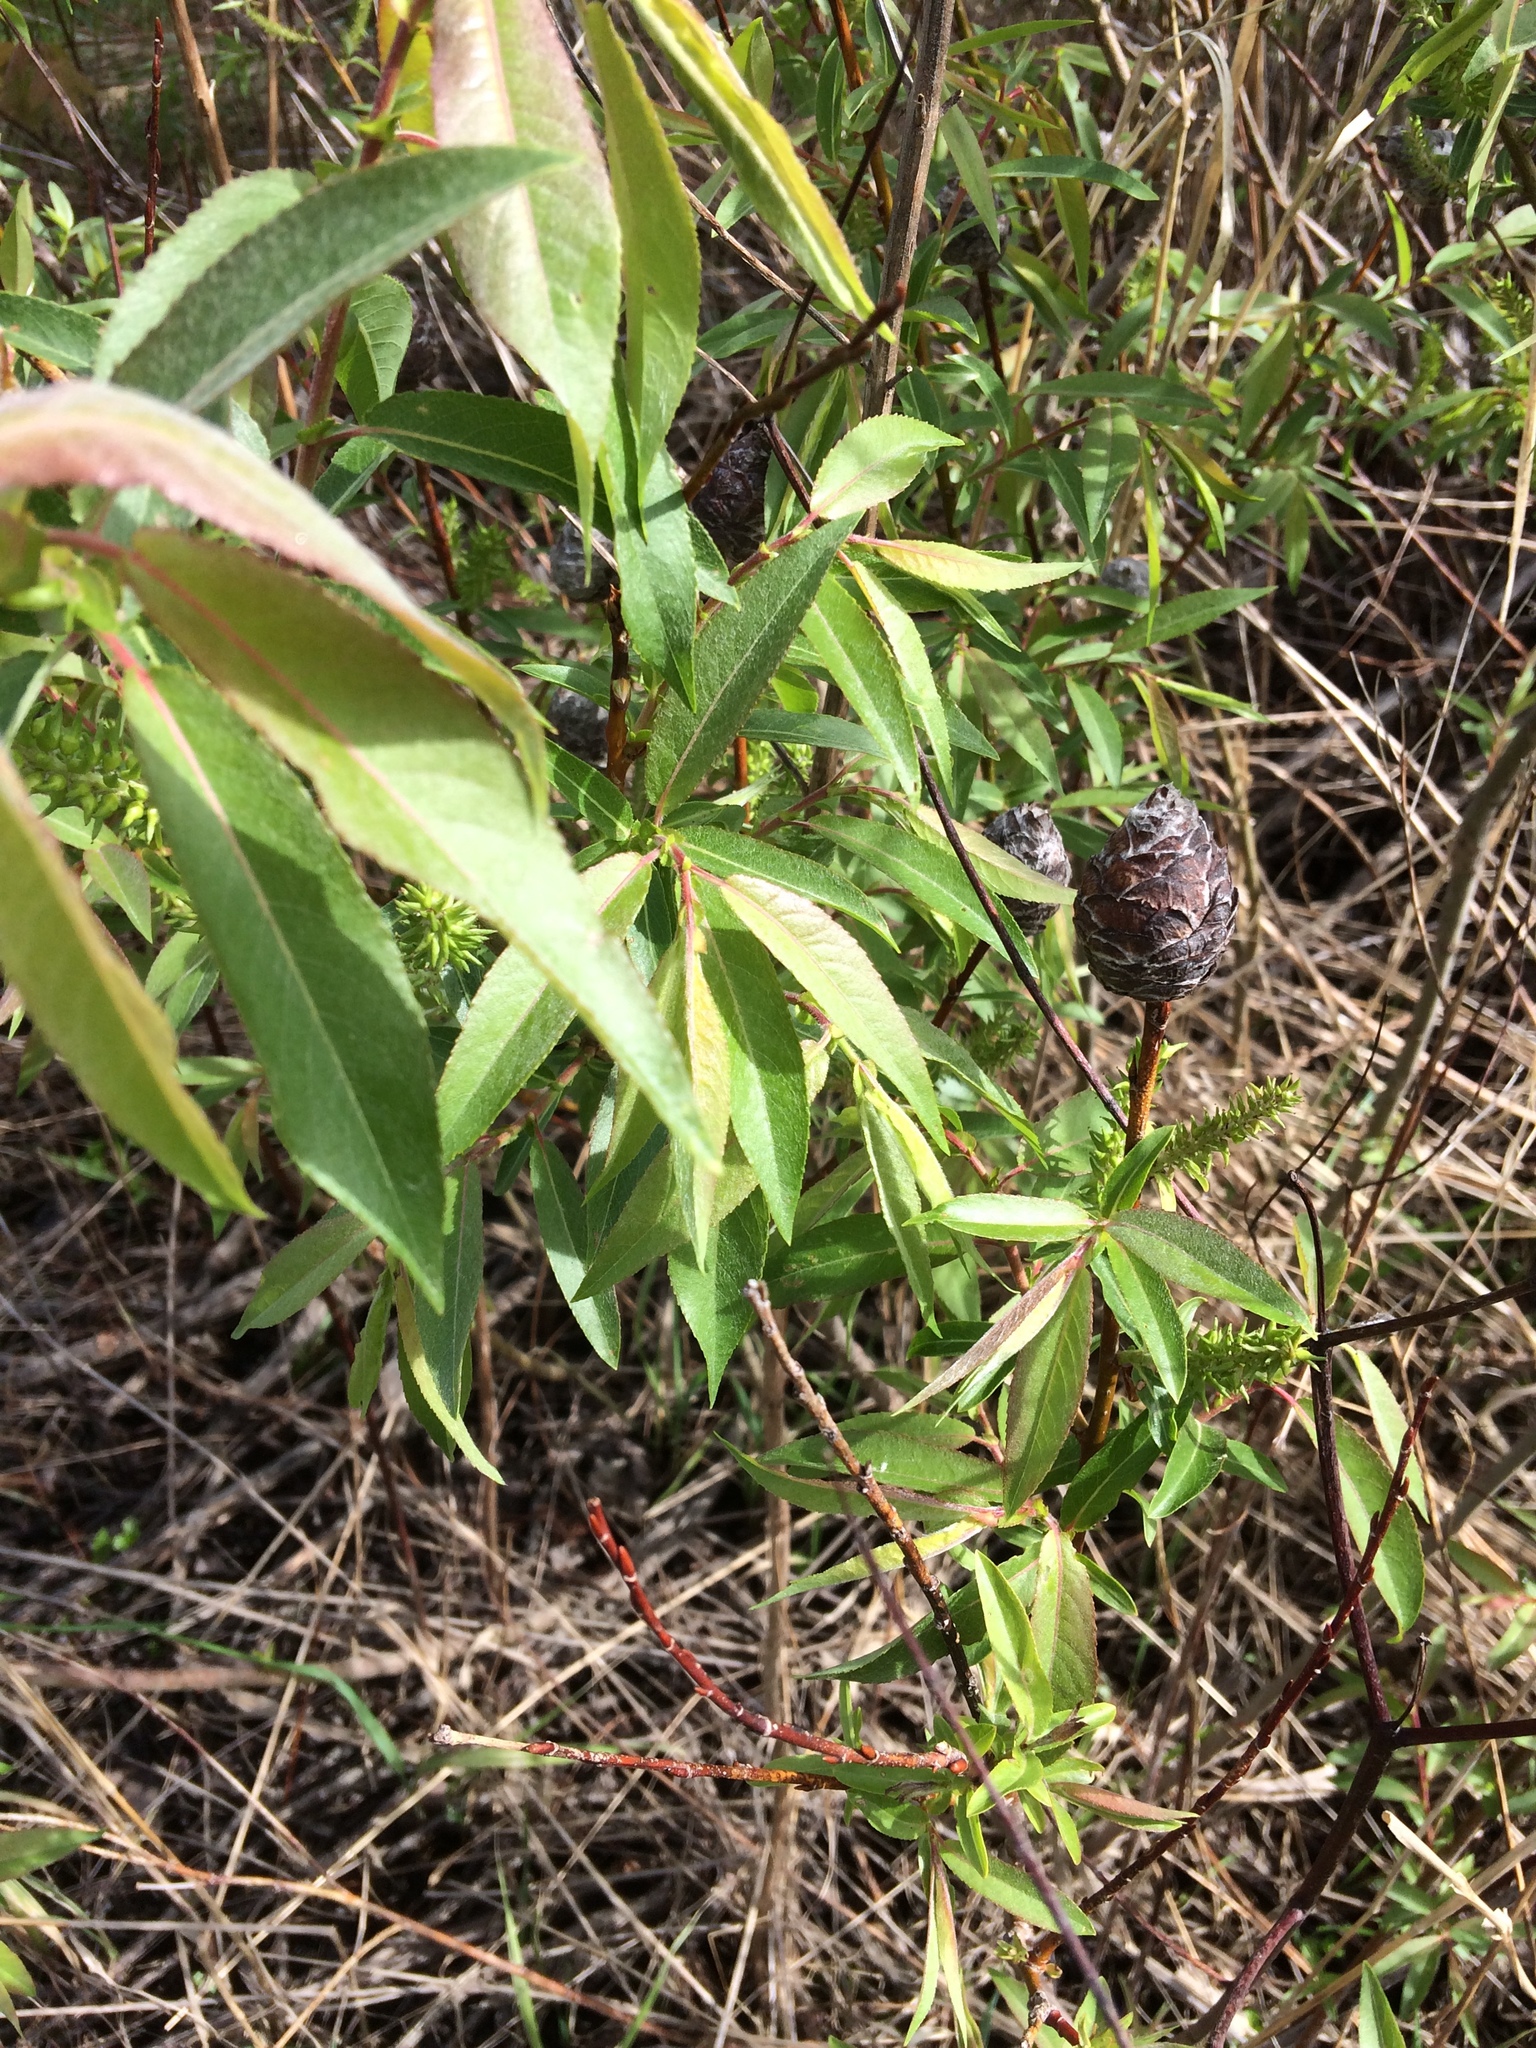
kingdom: Animalia
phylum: Arthropoda
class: Insecta
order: Diptera
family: Cecidomyiidae
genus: Rabdophaga
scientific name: Rabdophaga strobiloides
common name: Willow pinecone gall midge
